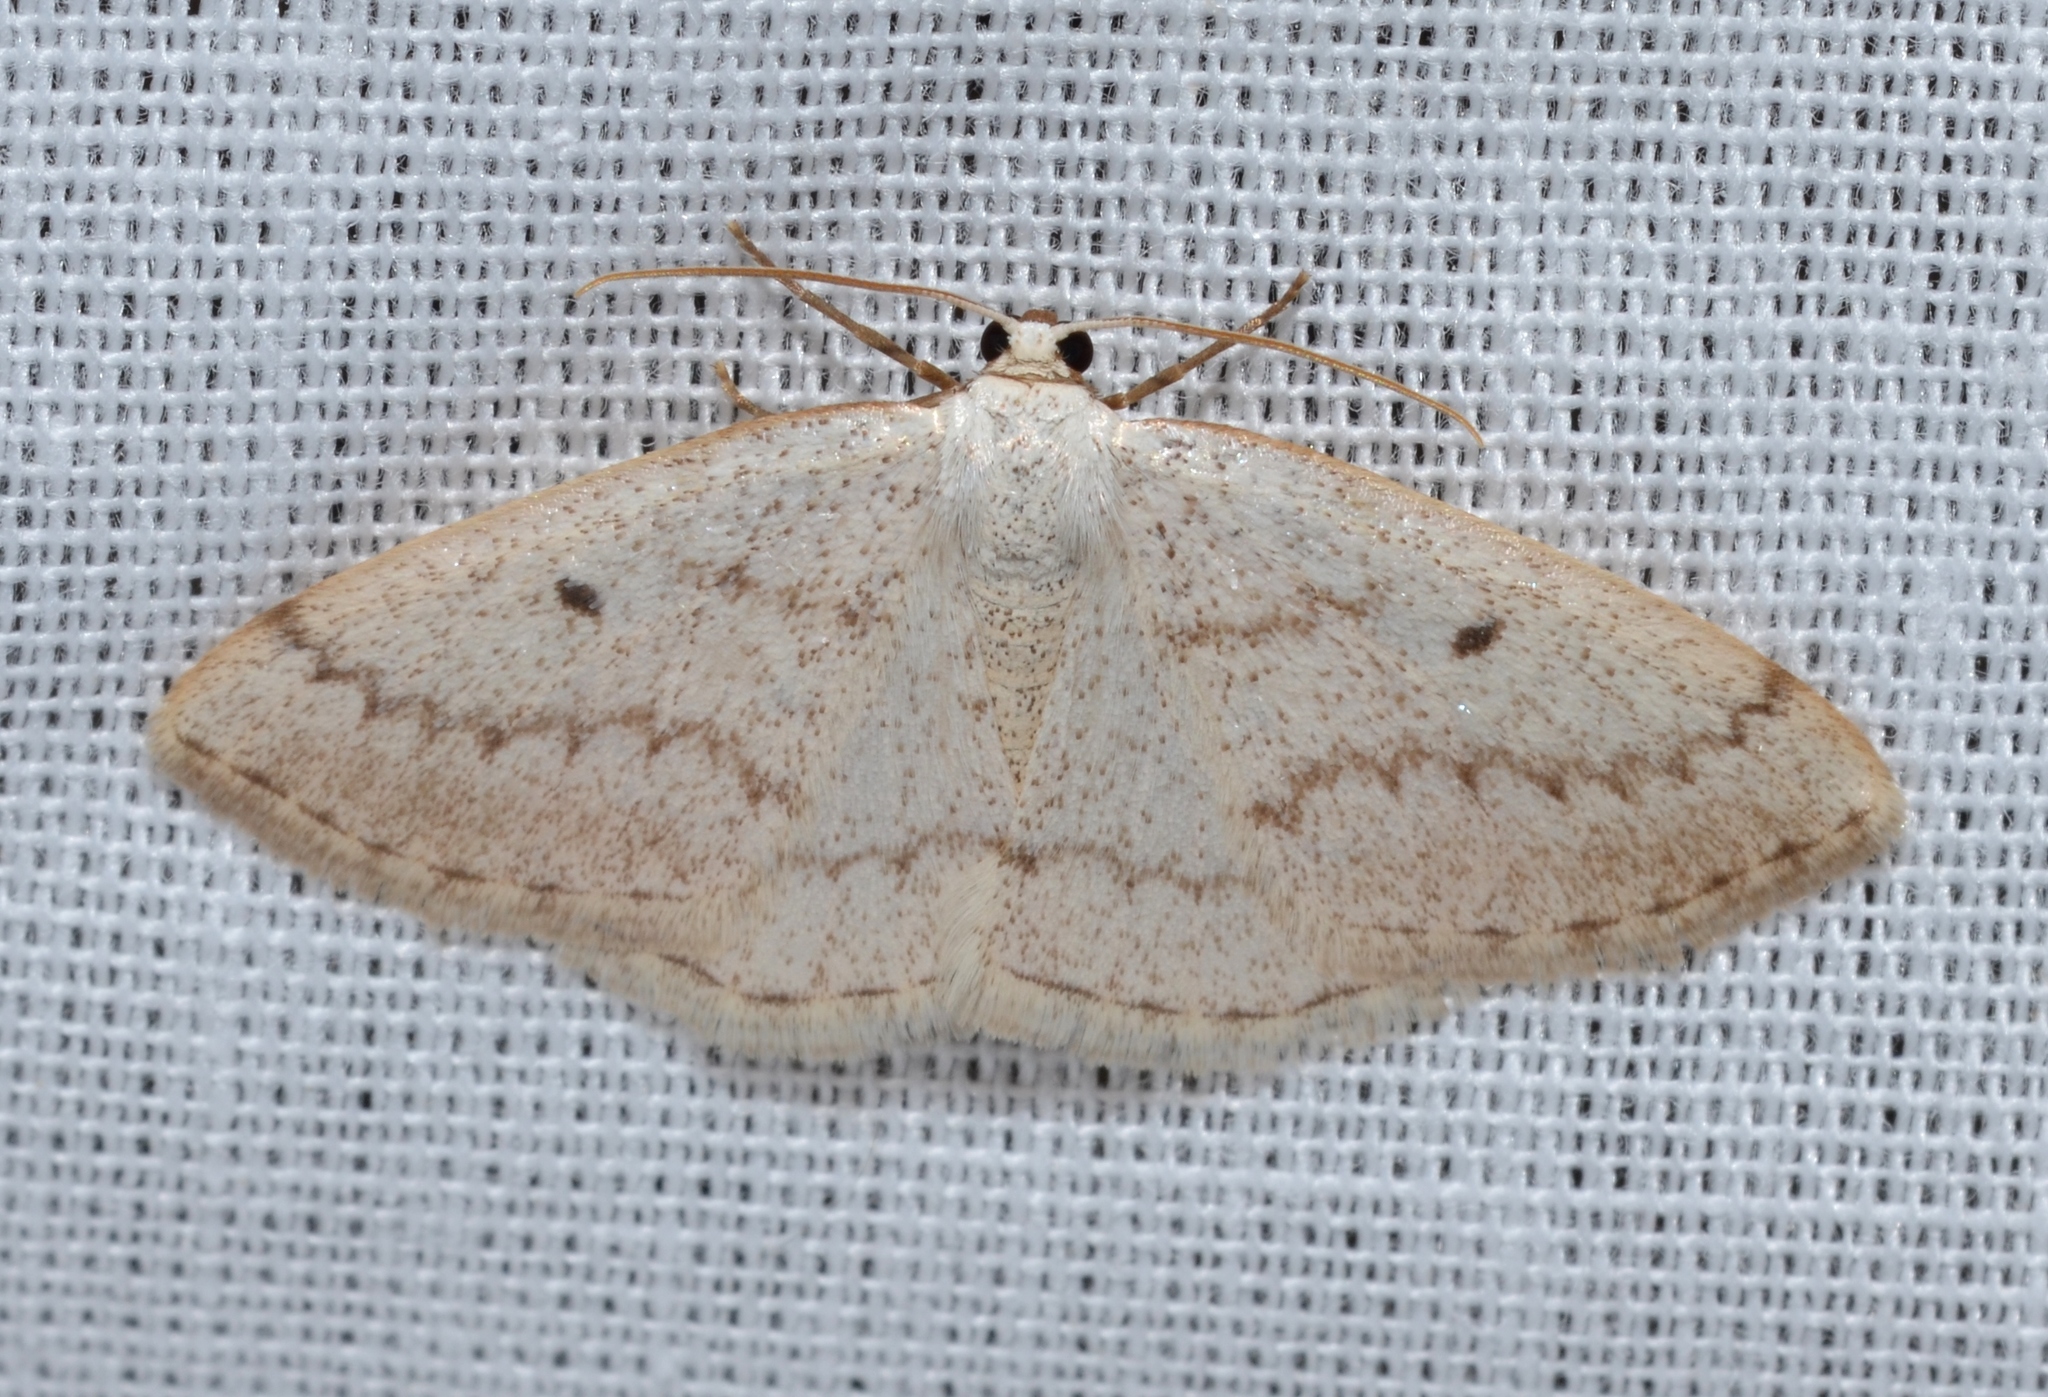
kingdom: Animalia
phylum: Arthropoda
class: Insecta
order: Lepidoptera
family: Geometridae
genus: Lomographa
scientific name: Lomographa glomeraria
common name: Gray spring moth
